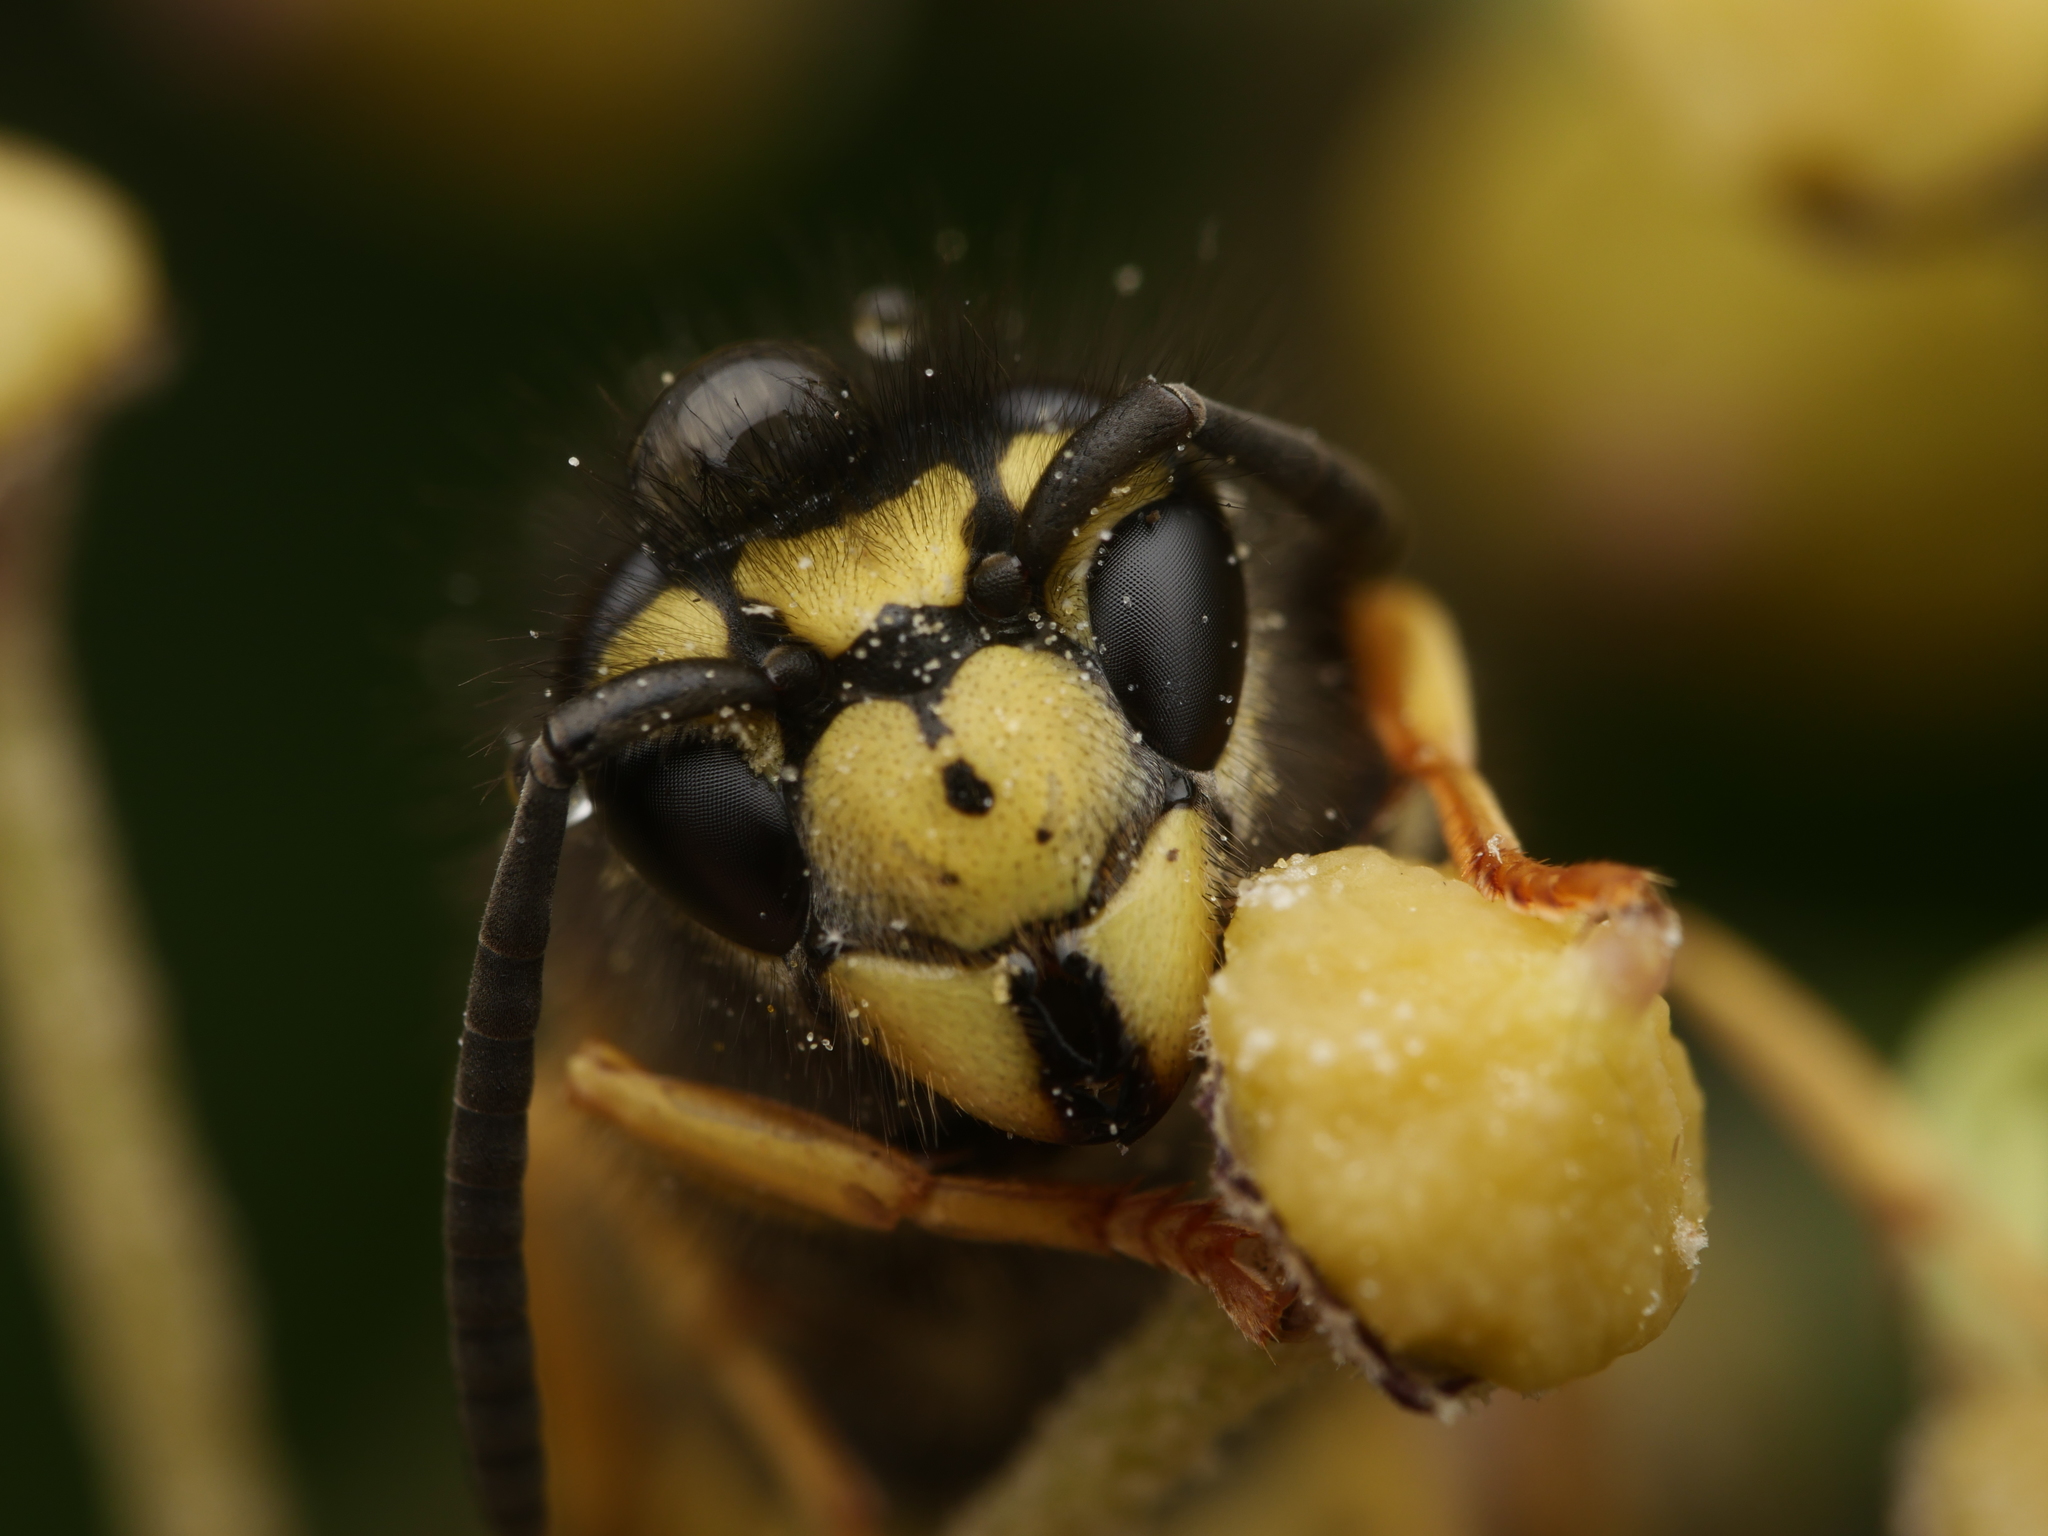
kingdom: Animalia
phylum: Arthropoda
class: Insecta
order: Hymenoptera
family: Vespidae
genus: Vespula
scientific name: Vespula germanica
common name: German wasp
